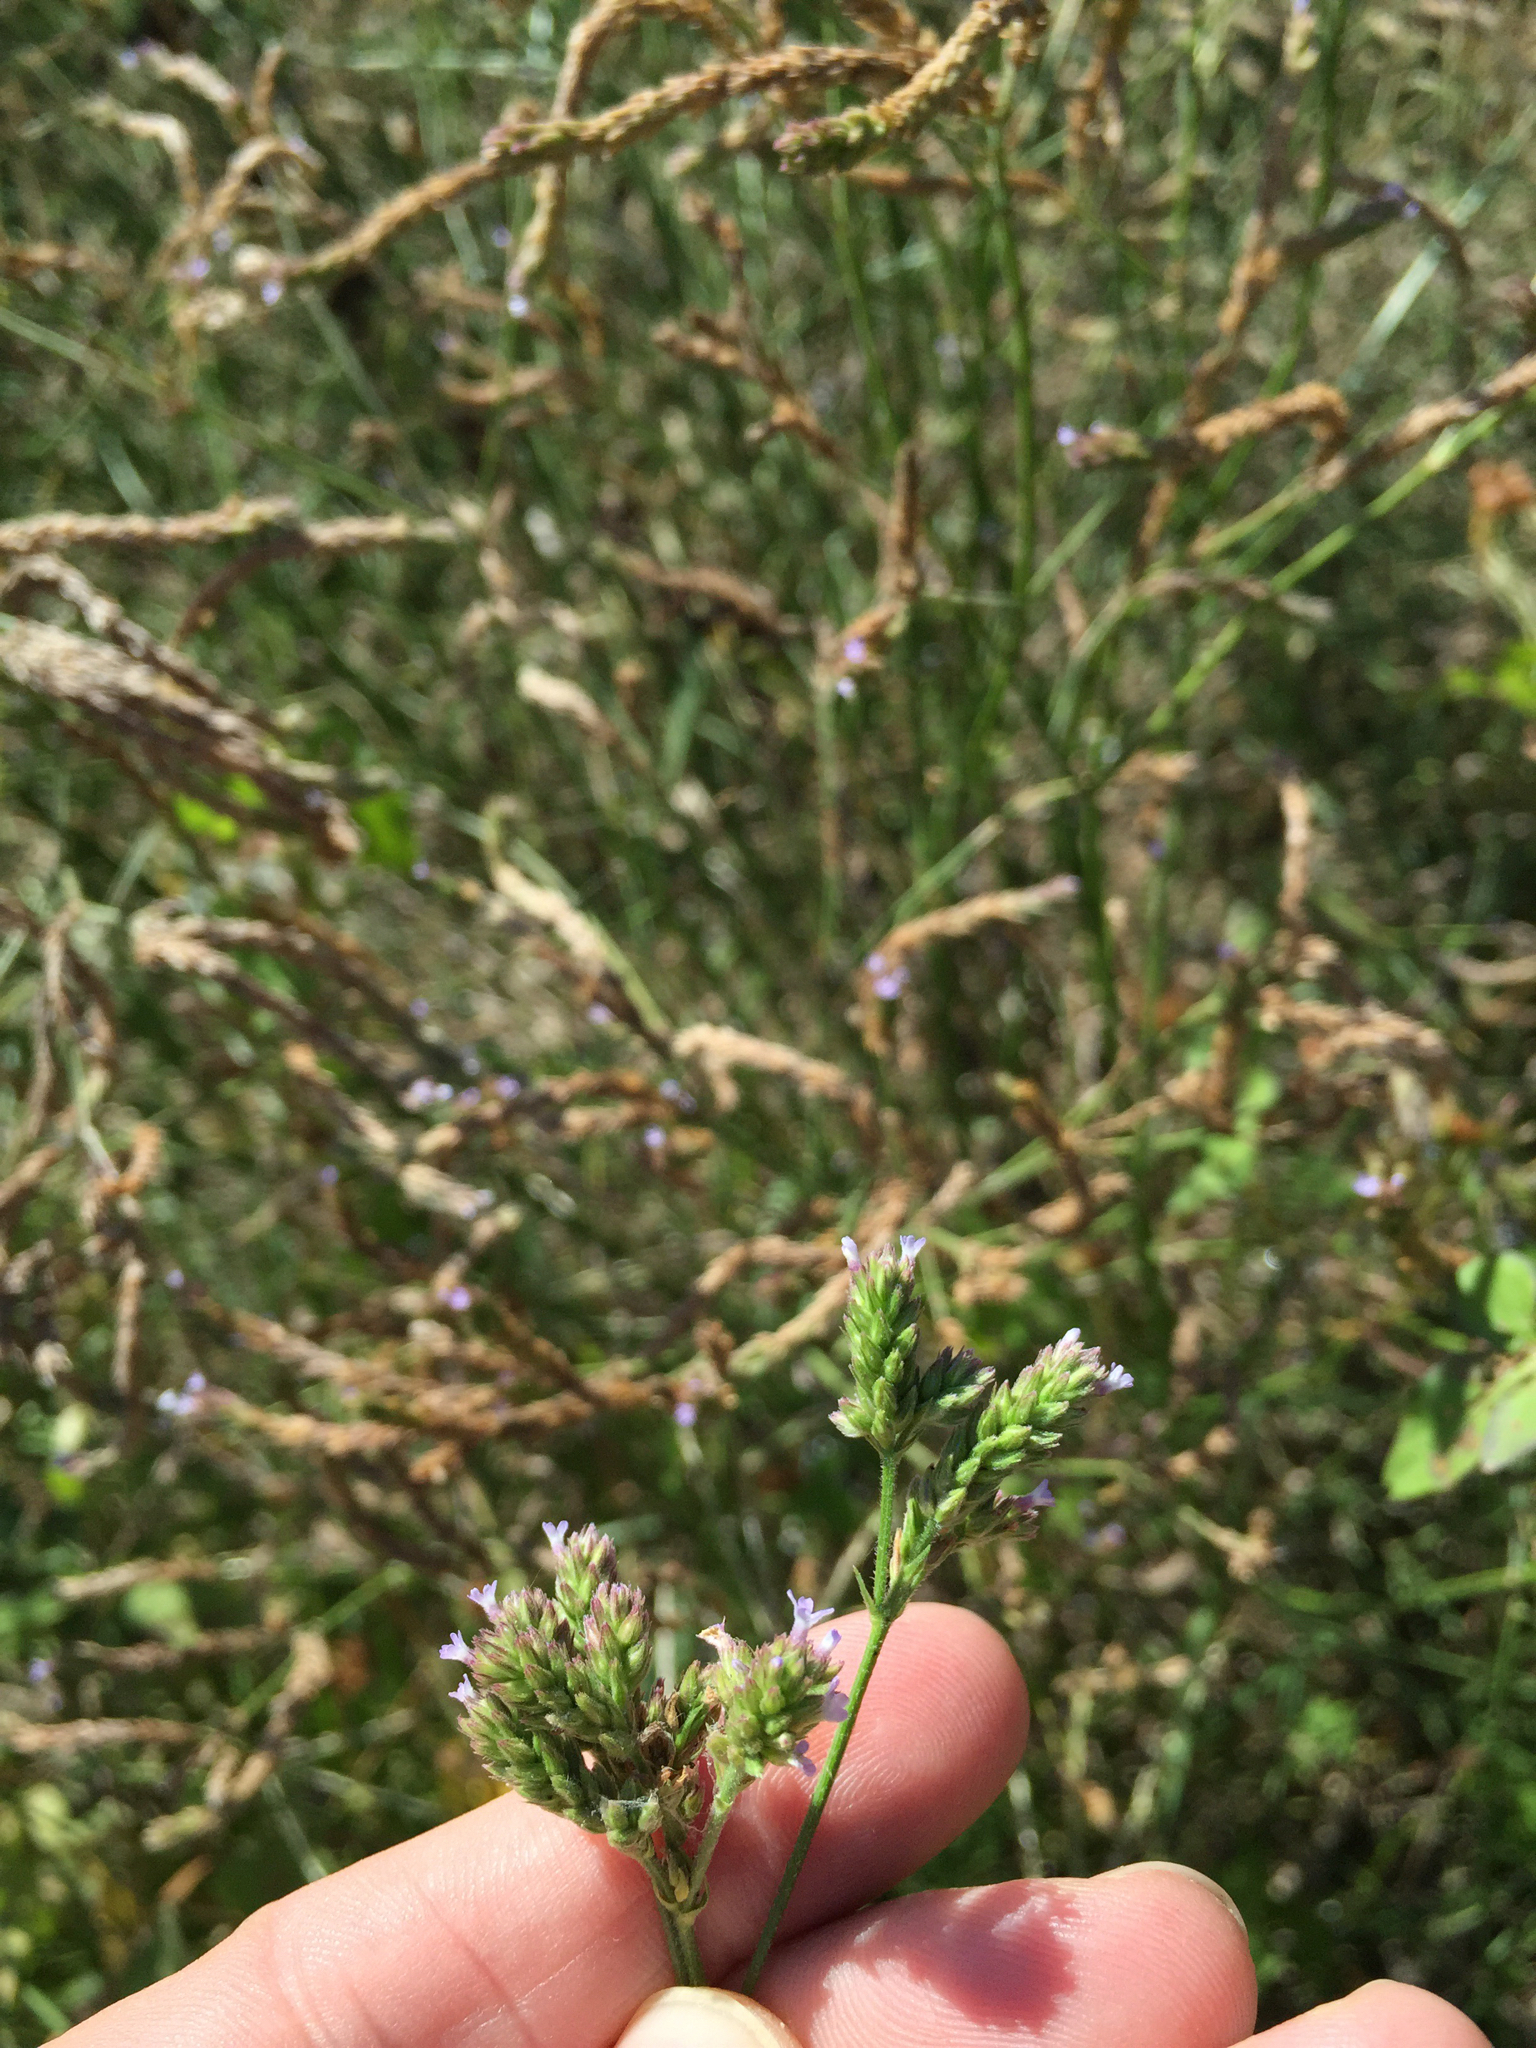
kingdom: Plantae
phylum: Tracheophyta
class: Magnoliopsida
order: Lamiales
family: Verbenaceae
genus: Verbena
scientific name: Verbena brasiliensis
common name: Brazilian vervain
